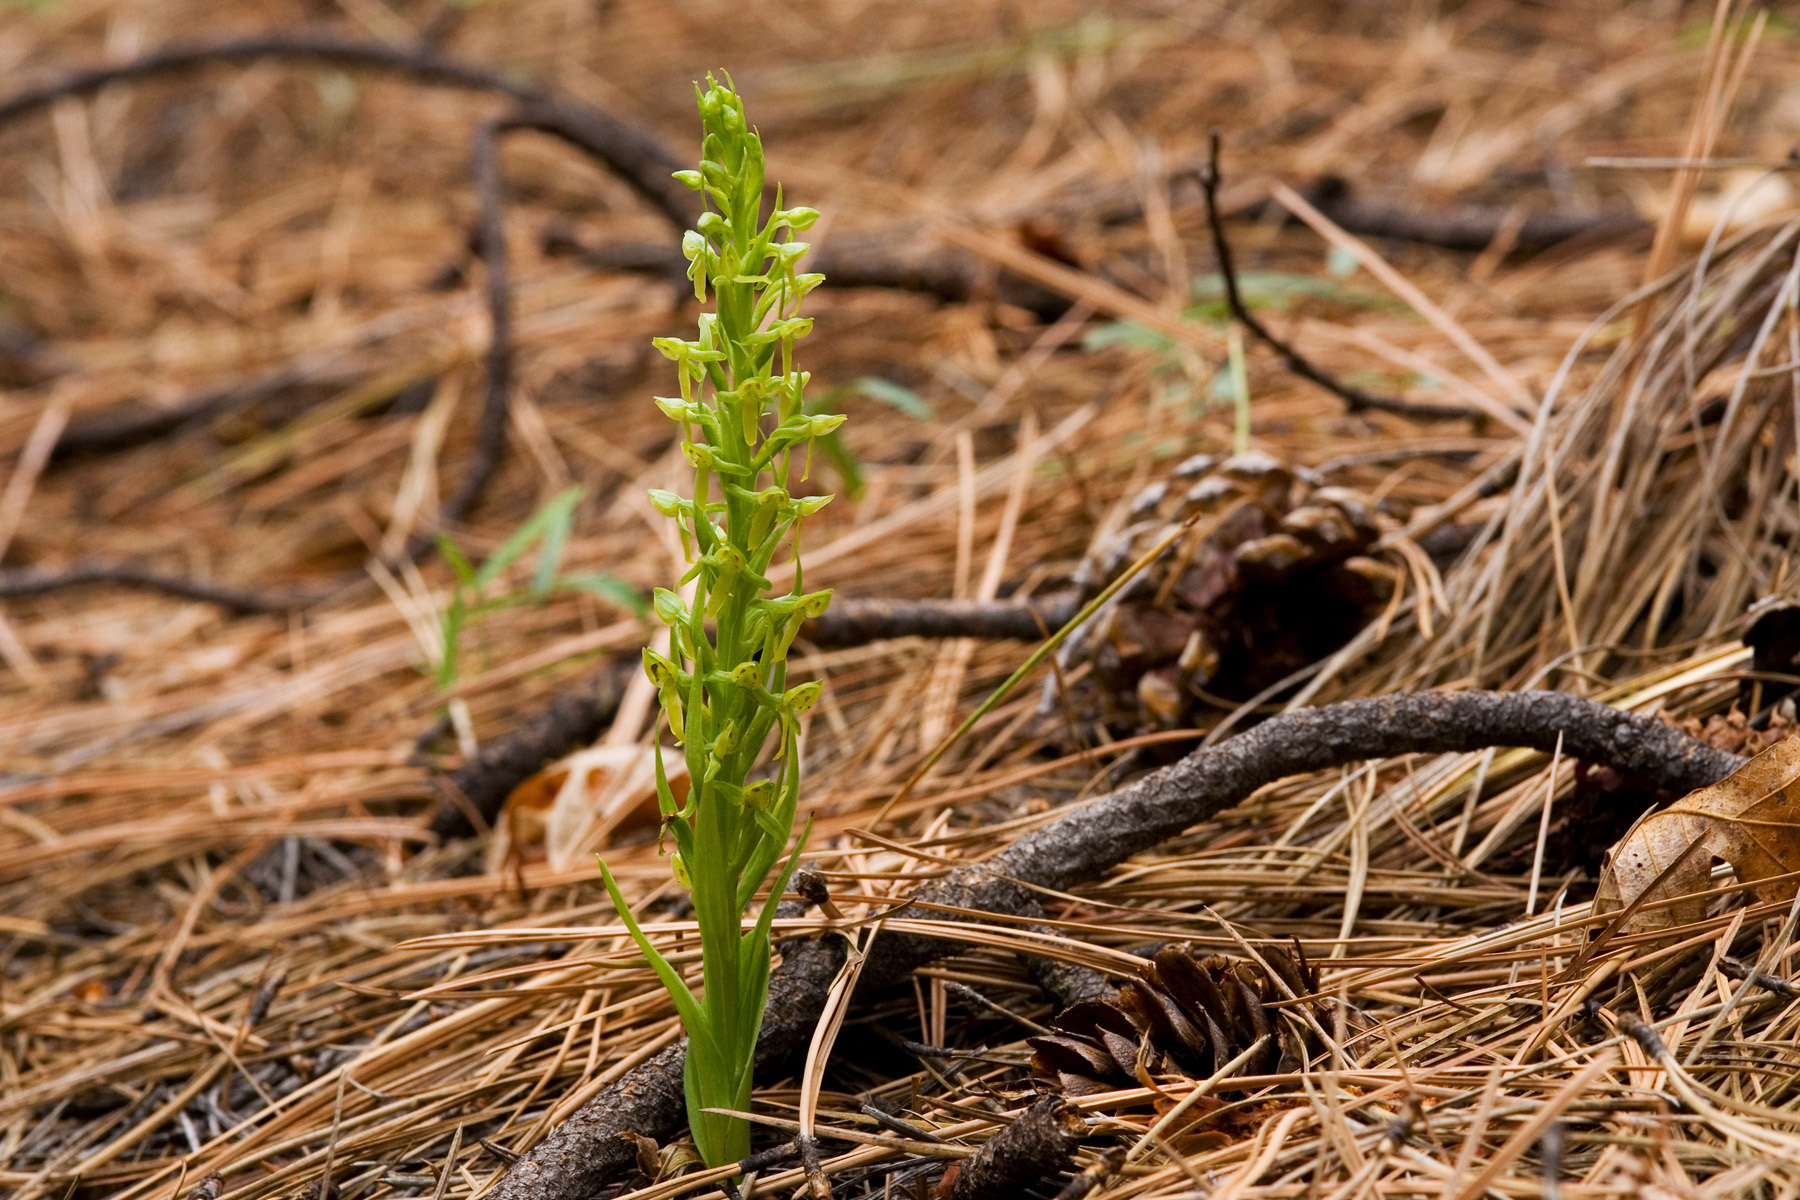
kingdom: Plantae
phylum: Tracheophyta
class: Liliopsida
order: Asparagales
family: Orchidaceae
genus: Platanthera
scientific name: Platanthera brevifolia
